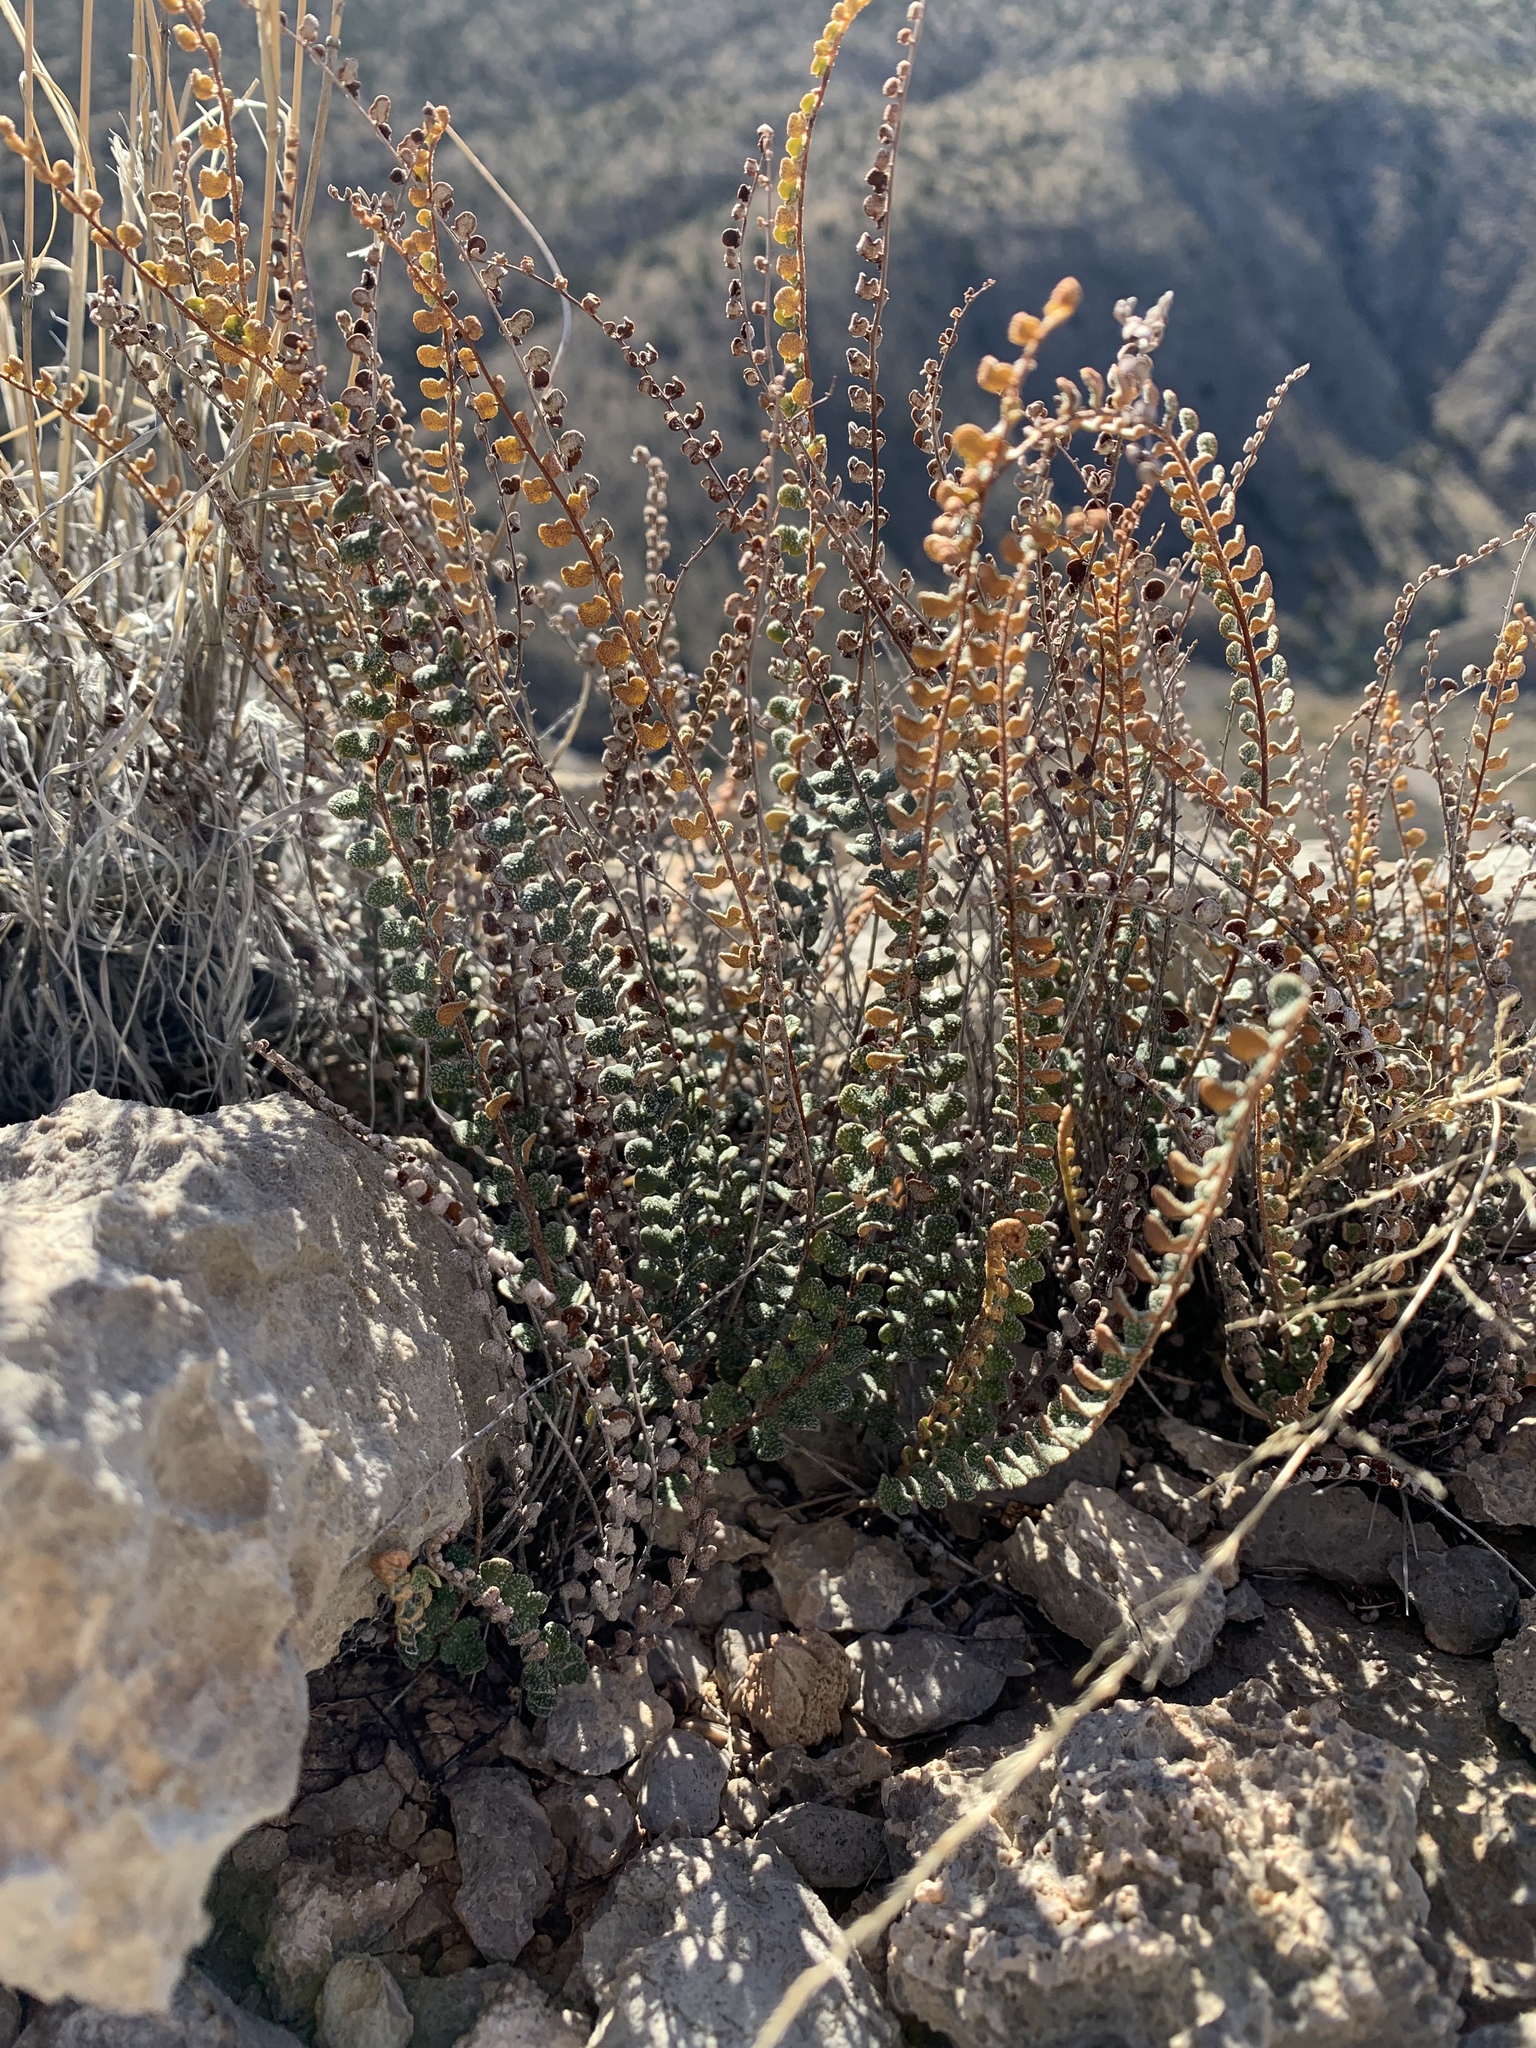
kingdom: Plantae
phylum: Tracheophyta
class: Polypodiopsida
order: Polypodiales
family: Pteridaceae
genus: Astrolepis
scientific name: Astrolepis cochisensis
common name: Scaly cloak fern
